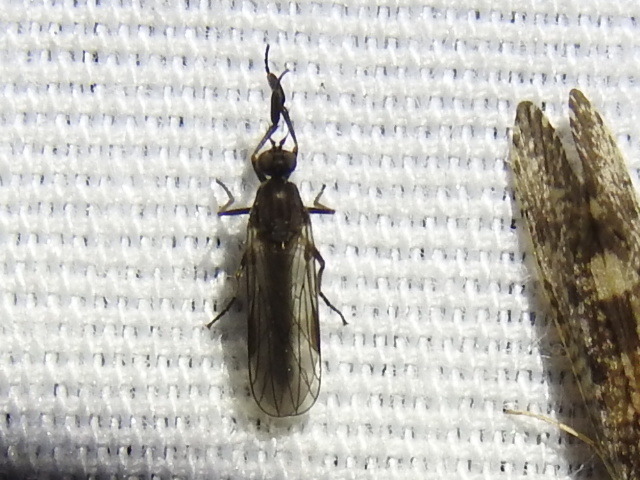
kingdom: Animalia
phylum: Arthropoda
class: Insecta
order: Diptera
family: Empididae
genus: Hilara
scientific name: Hilara
